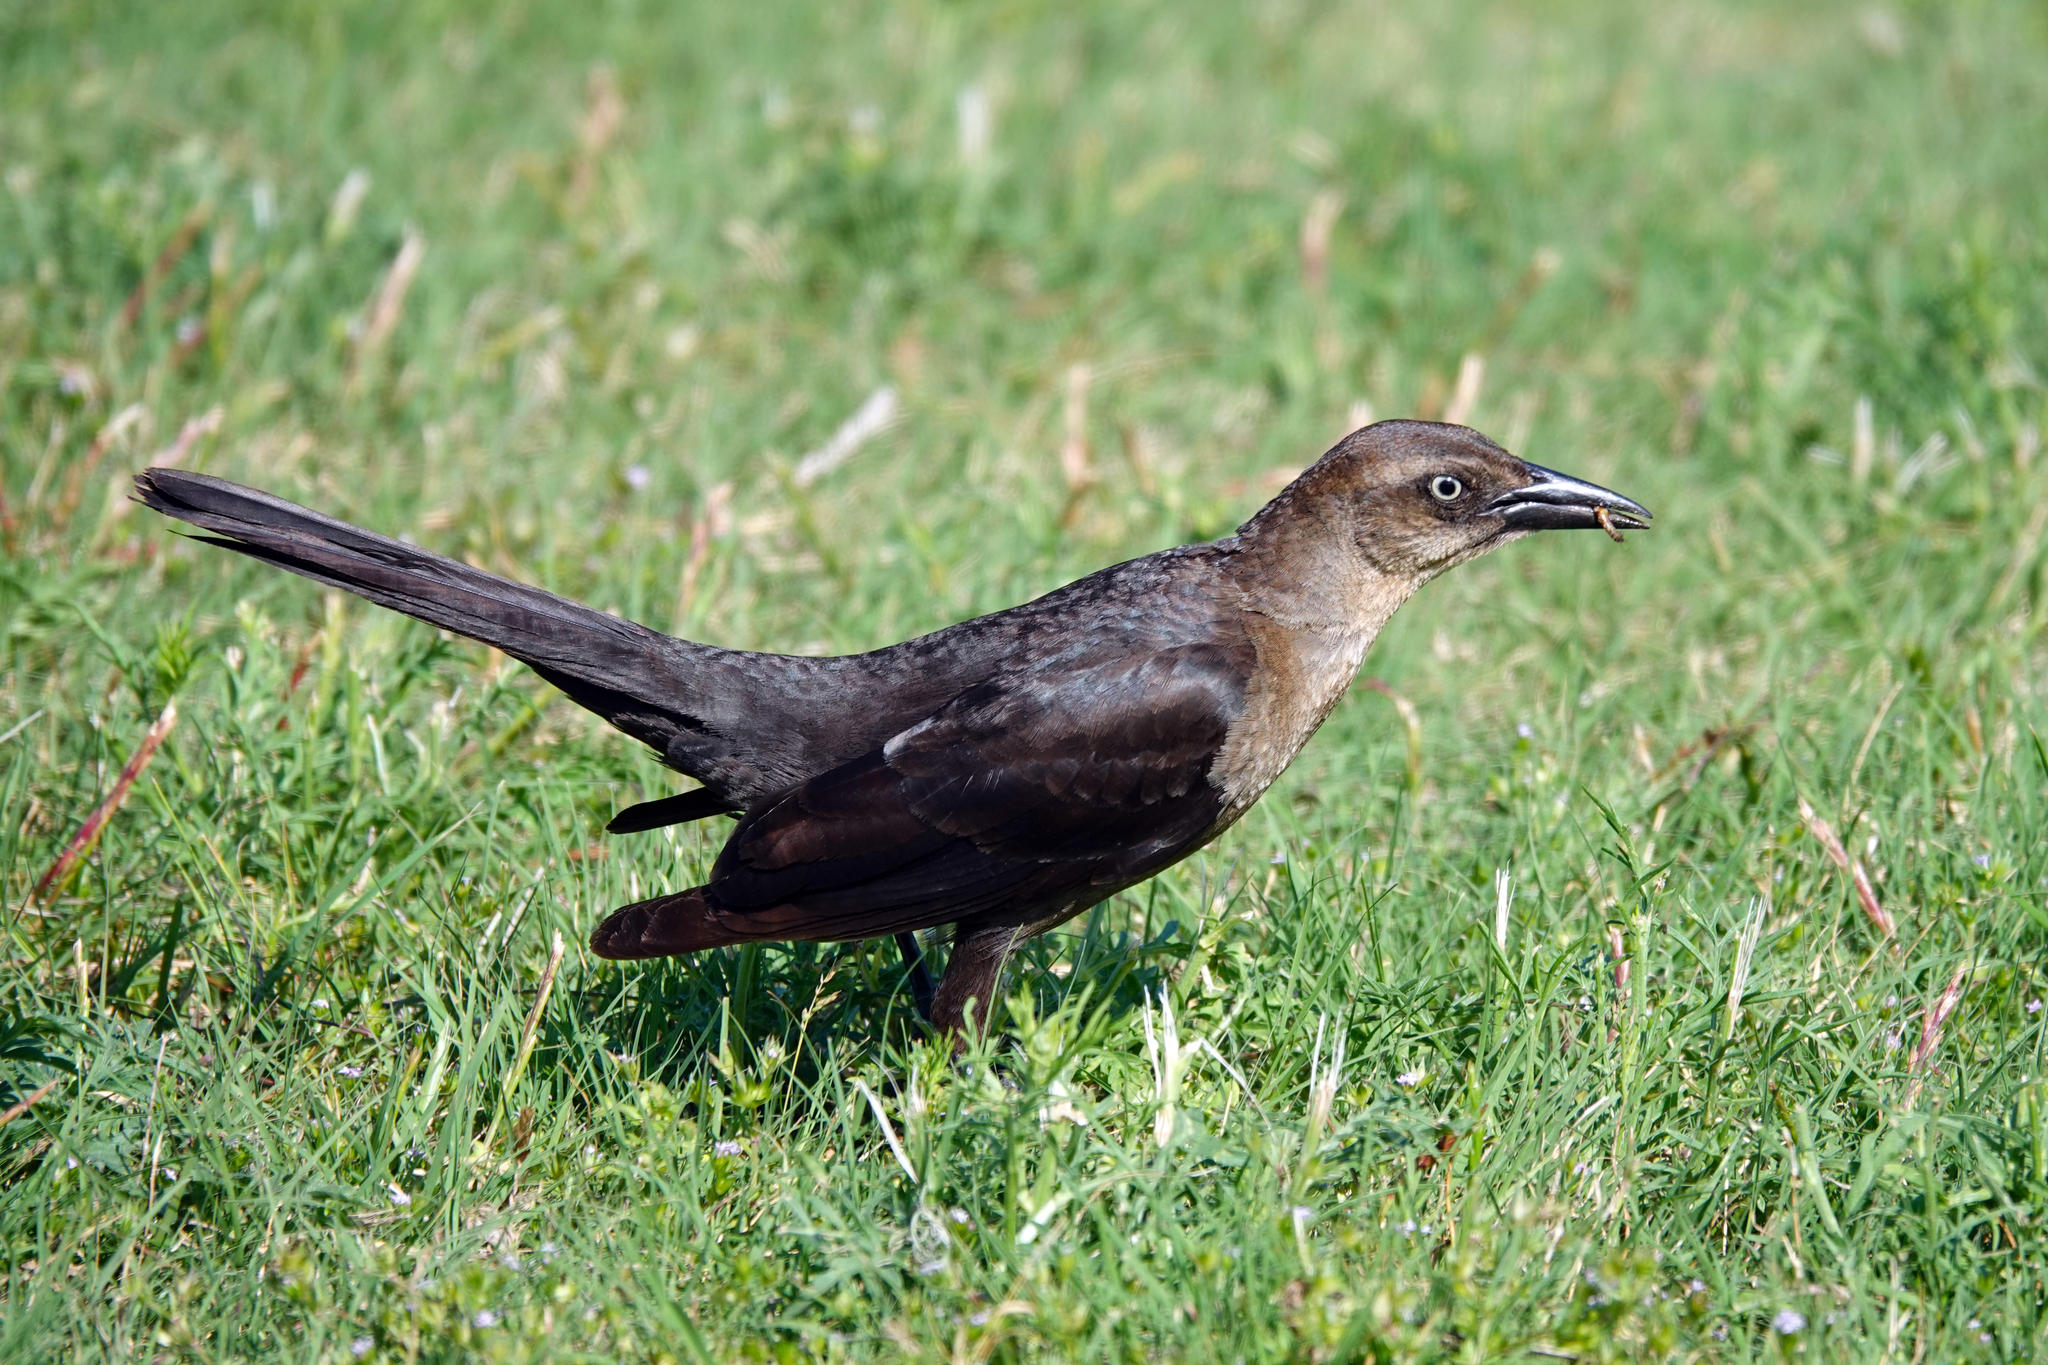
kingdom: Animalia
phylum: Chordata
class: Aves
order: Passeriformes
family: Icteridae
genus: Quiscalus
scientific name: Quiscalus mexicanus
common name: Great-tailed grackle
